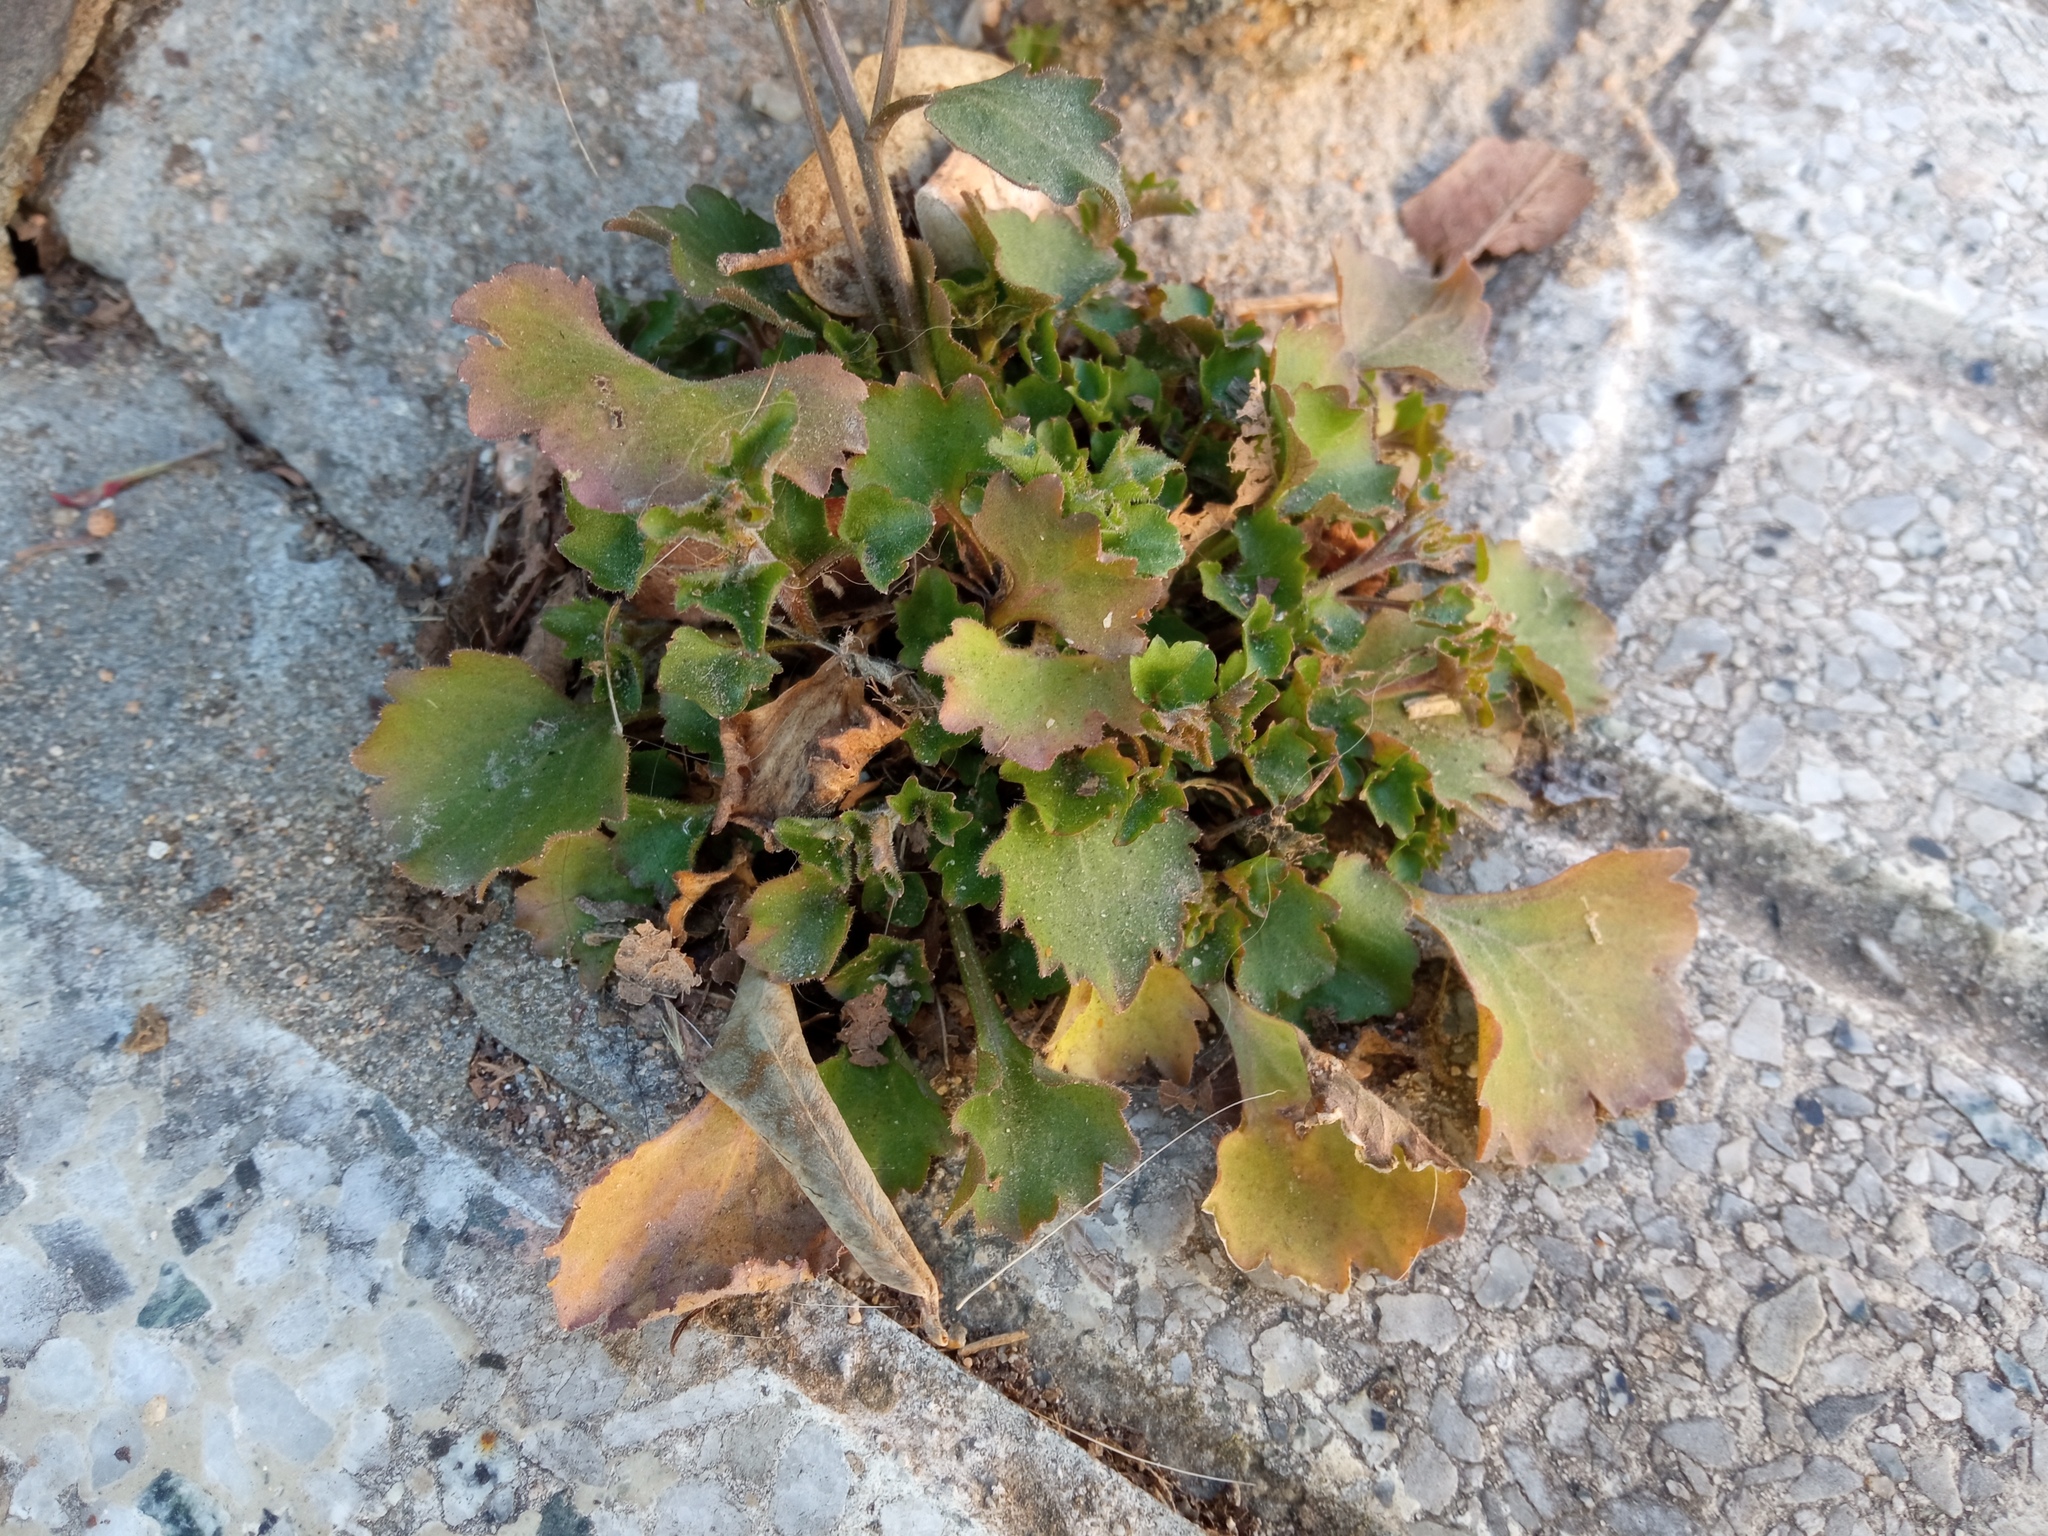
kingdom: Plantae
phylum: Tracheophyta
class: Magnoliopsida
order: Asterales
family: Campanulaceae
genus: Campanula
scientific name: Campanula portenschlagiana
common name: Adria bellflower
